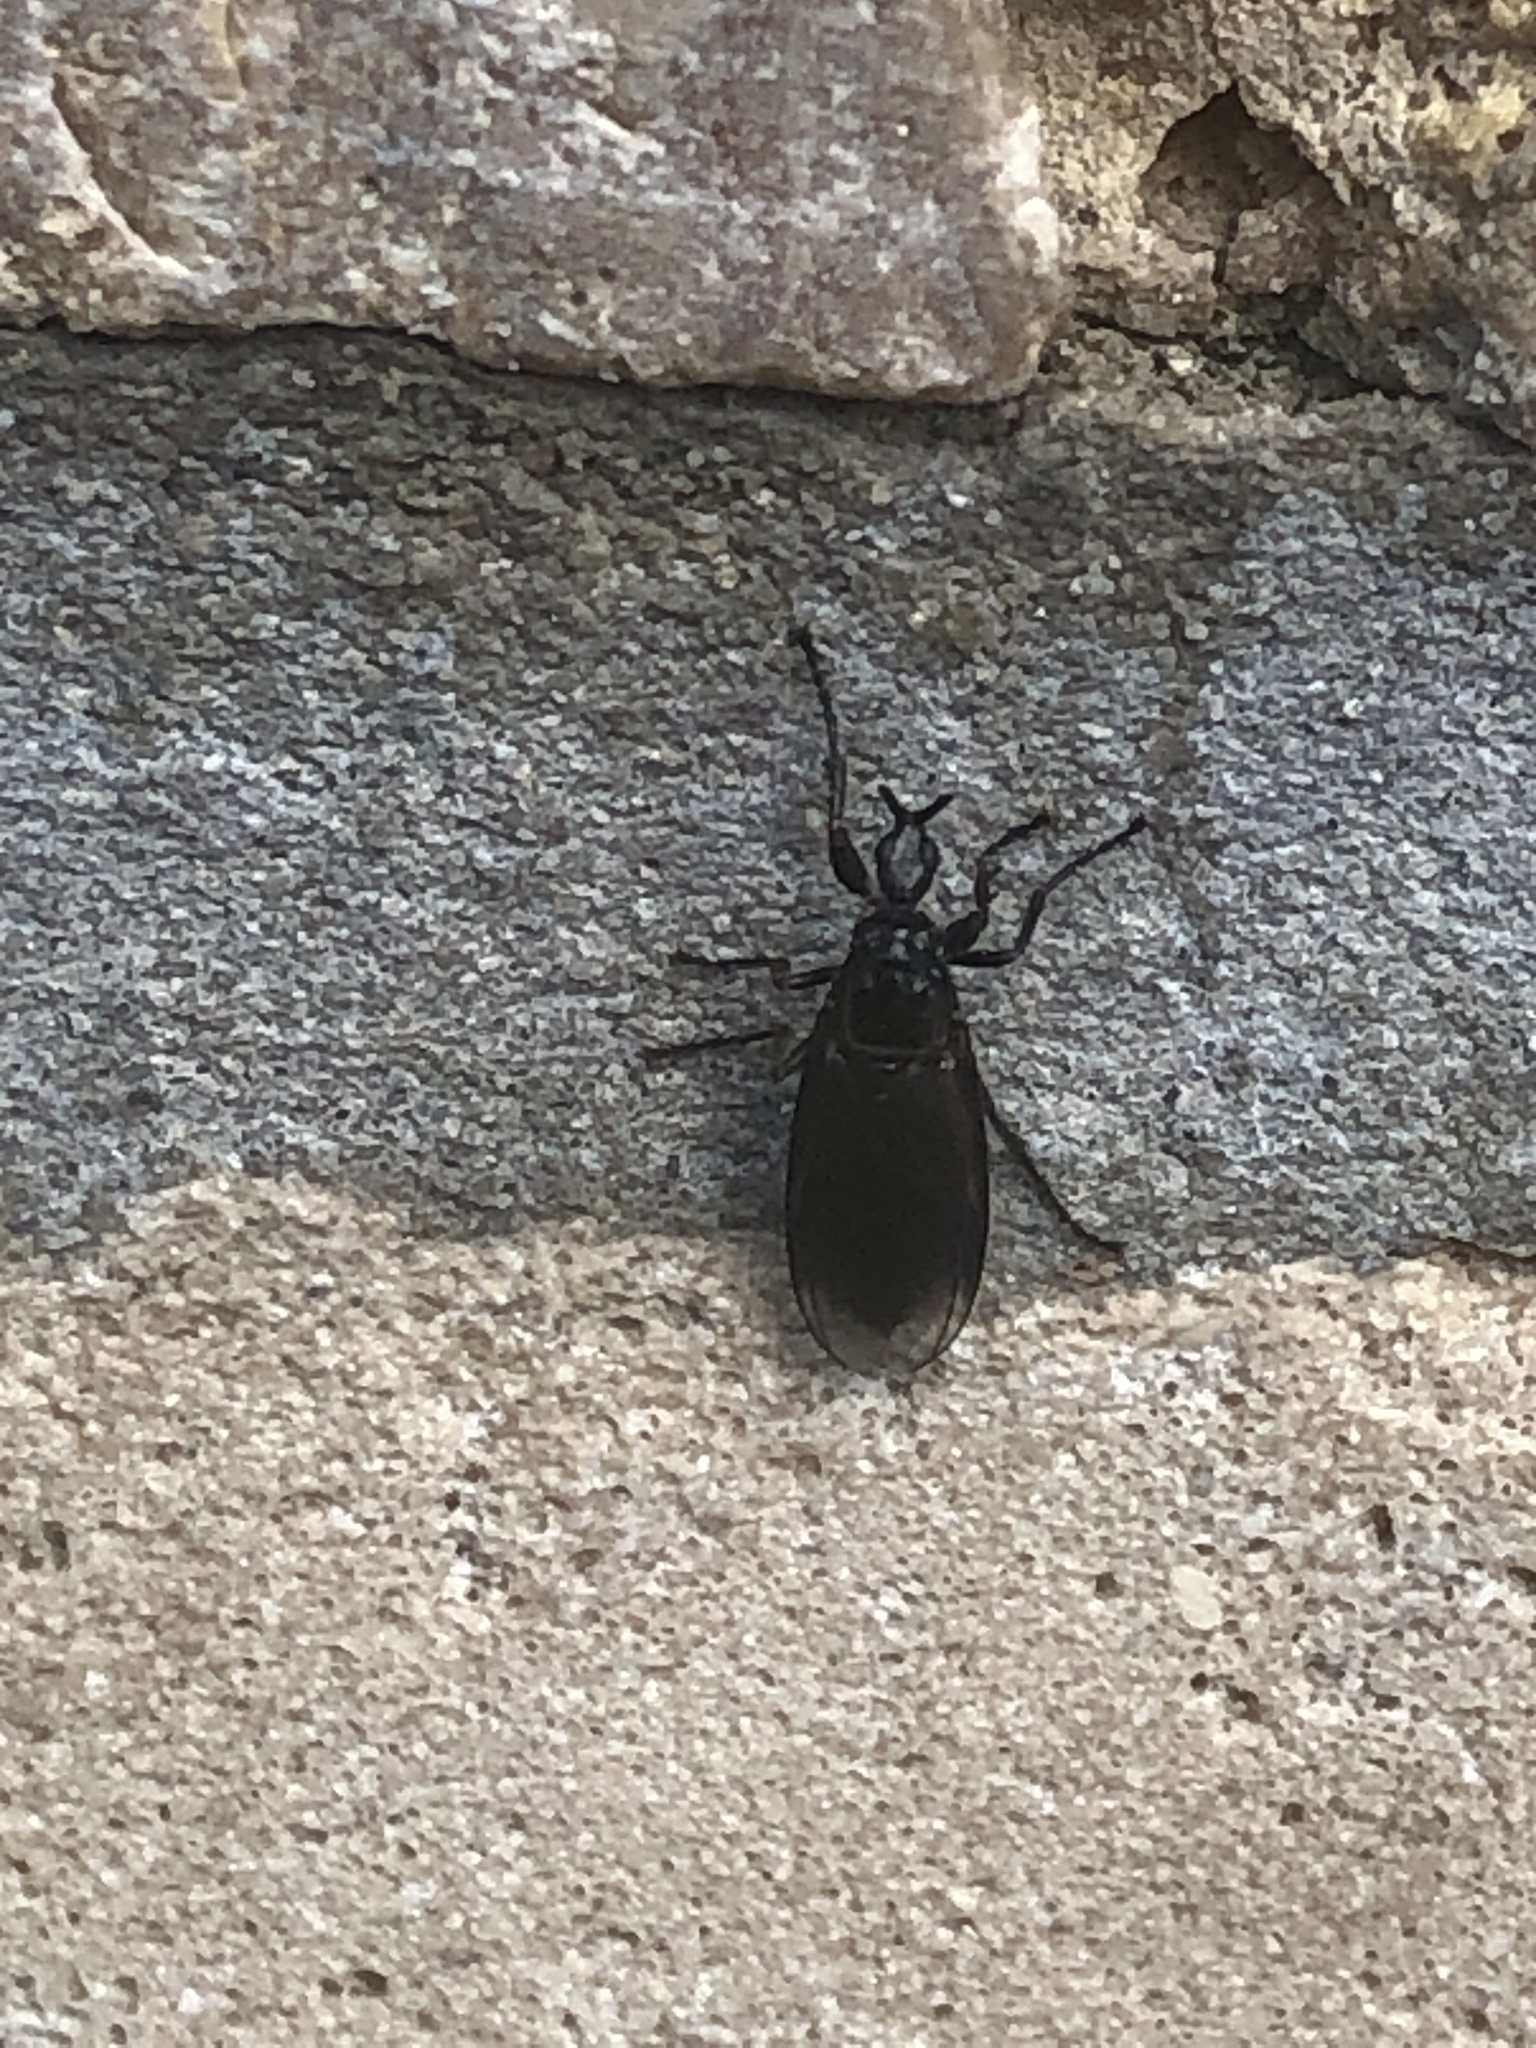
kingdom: Animalia
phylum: Arthropoda
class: Insecta
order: Diptera
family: Bibionidae
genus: Dilophus
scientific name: Dilophus febrilis
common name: Fever fly
